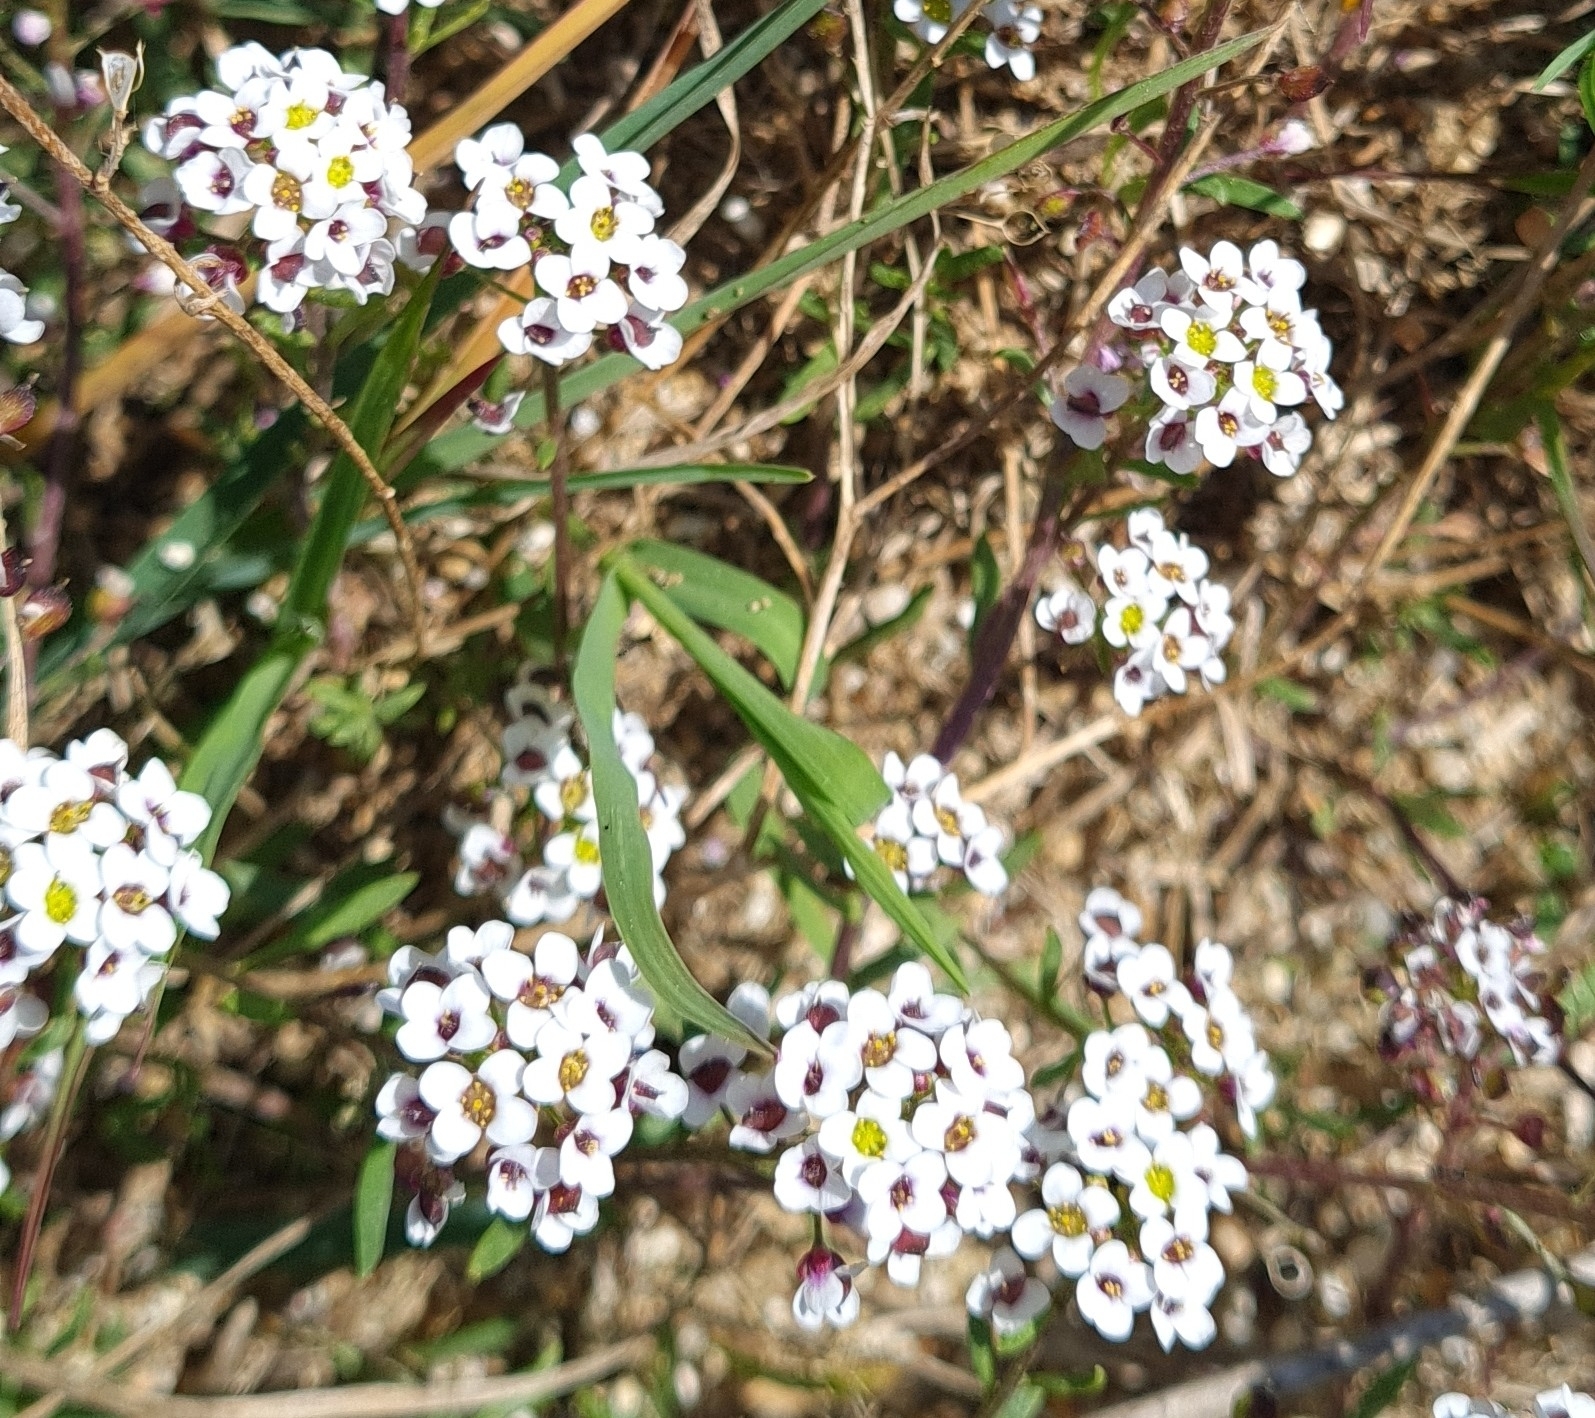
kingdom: Plantae
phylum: Tracheophyta
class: Magnoliopsida
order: Brassicales
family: Brassicaceae
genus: Lobularia
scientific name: Lobularia maritima
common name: Sweet alison
